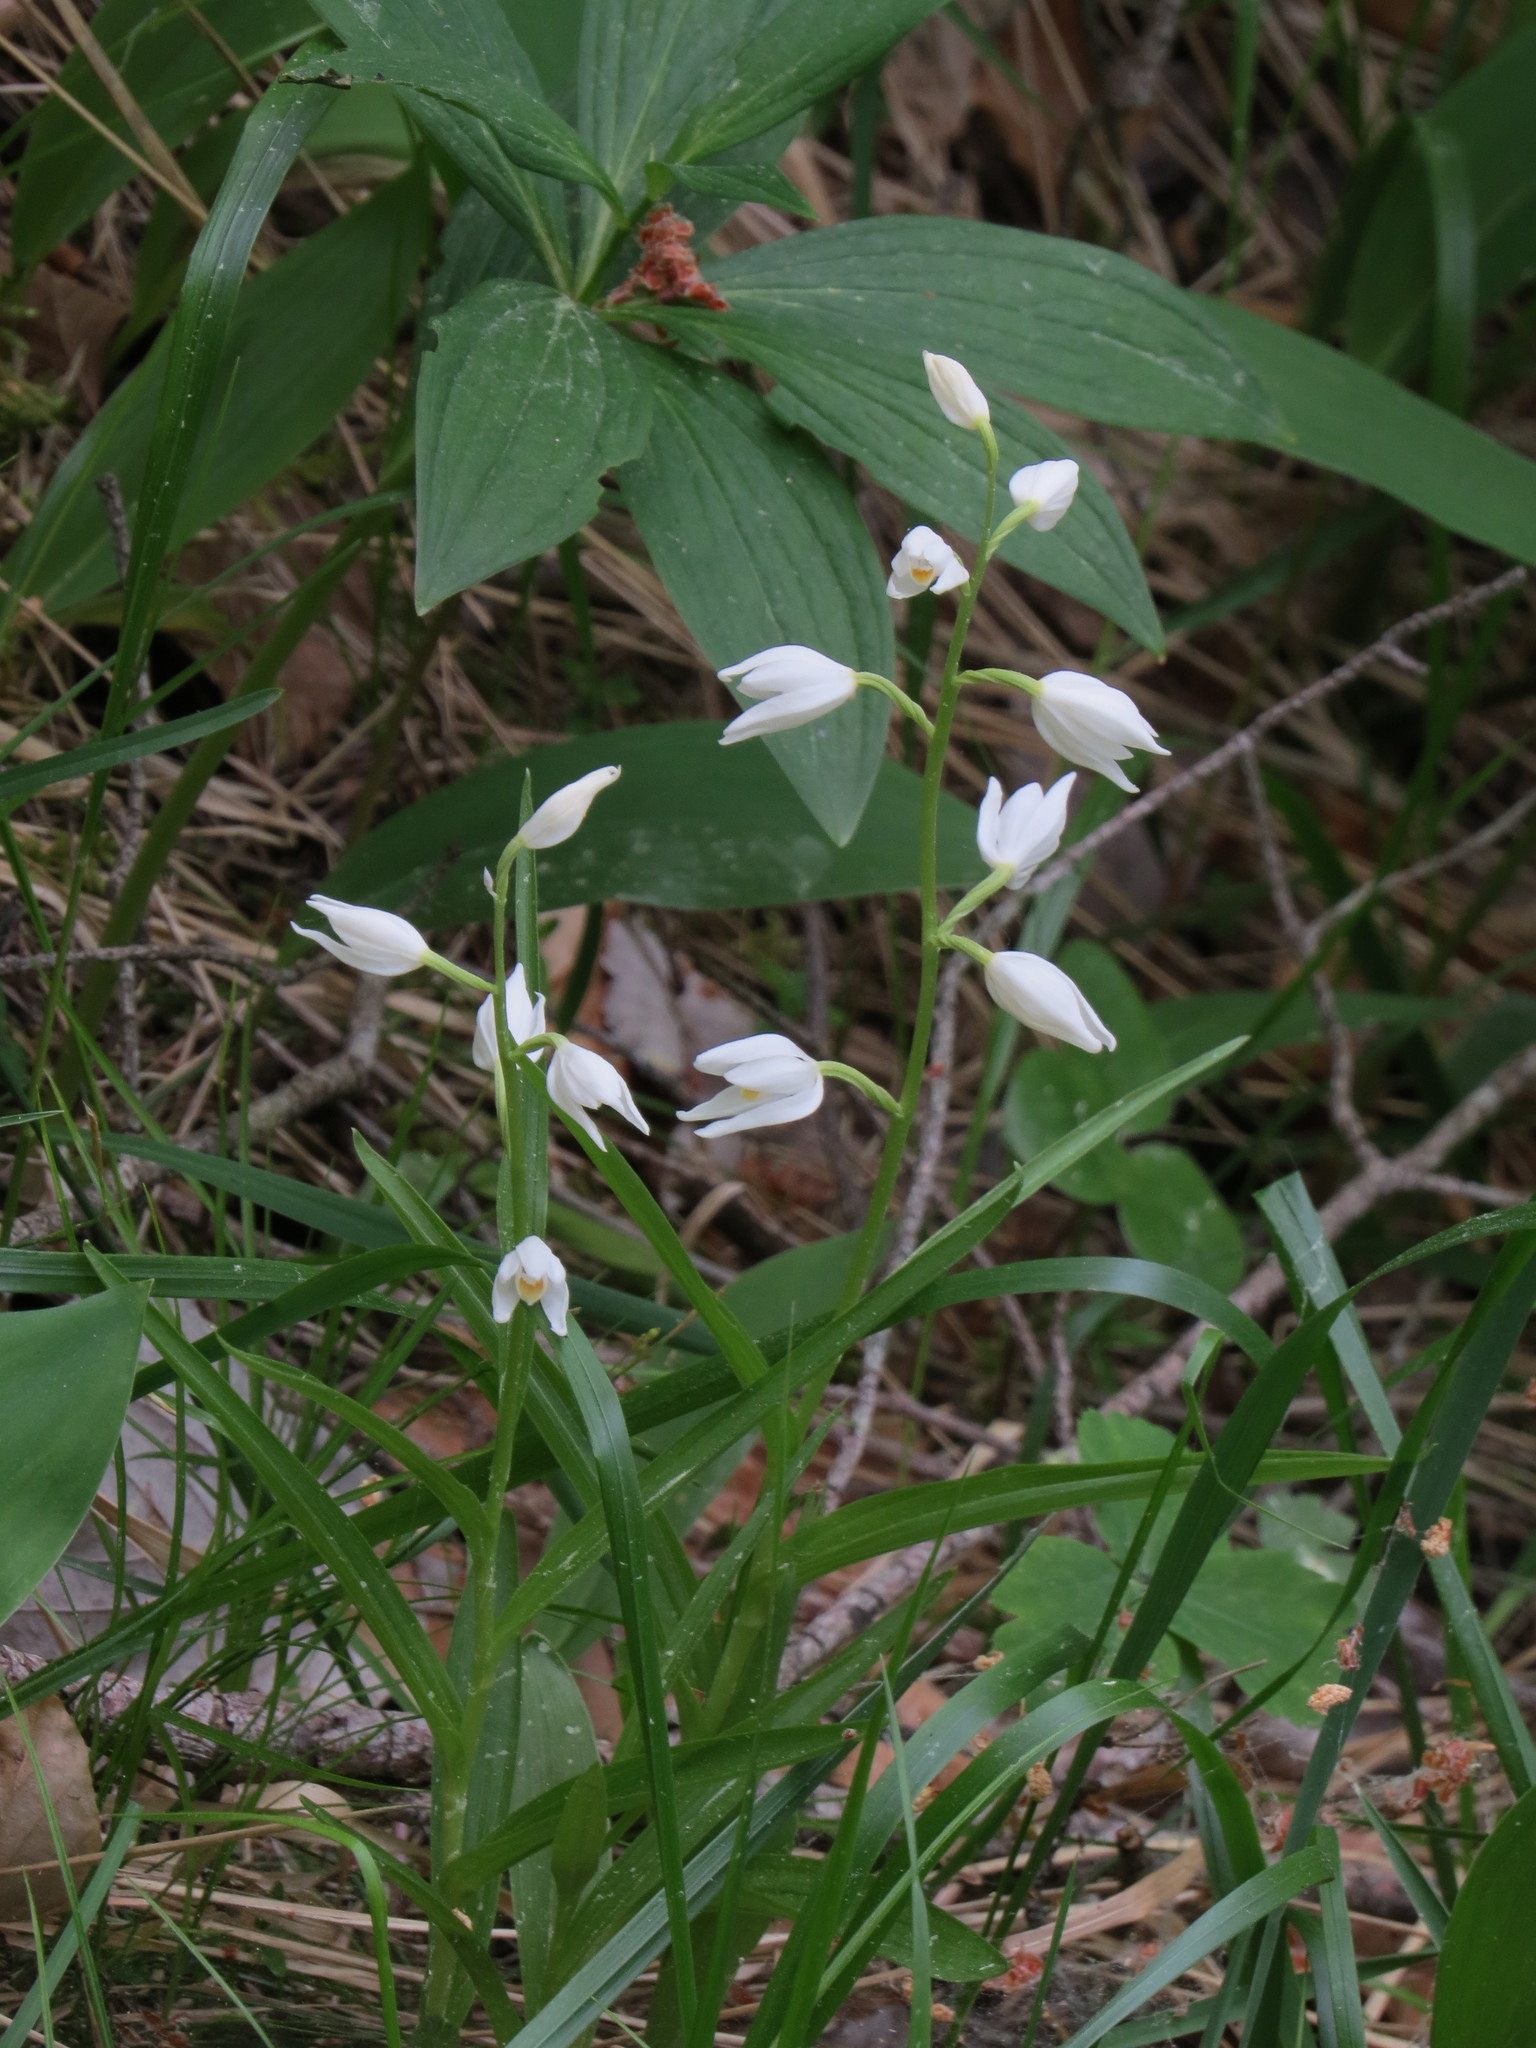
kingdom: Plantae
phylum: Tracheophyta
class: Liliopsida
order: Asparagales
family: Orchidaceae
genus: Cephalanthera
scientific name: Cephalanthera longifolia
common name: Narrow-leaved helleborine
